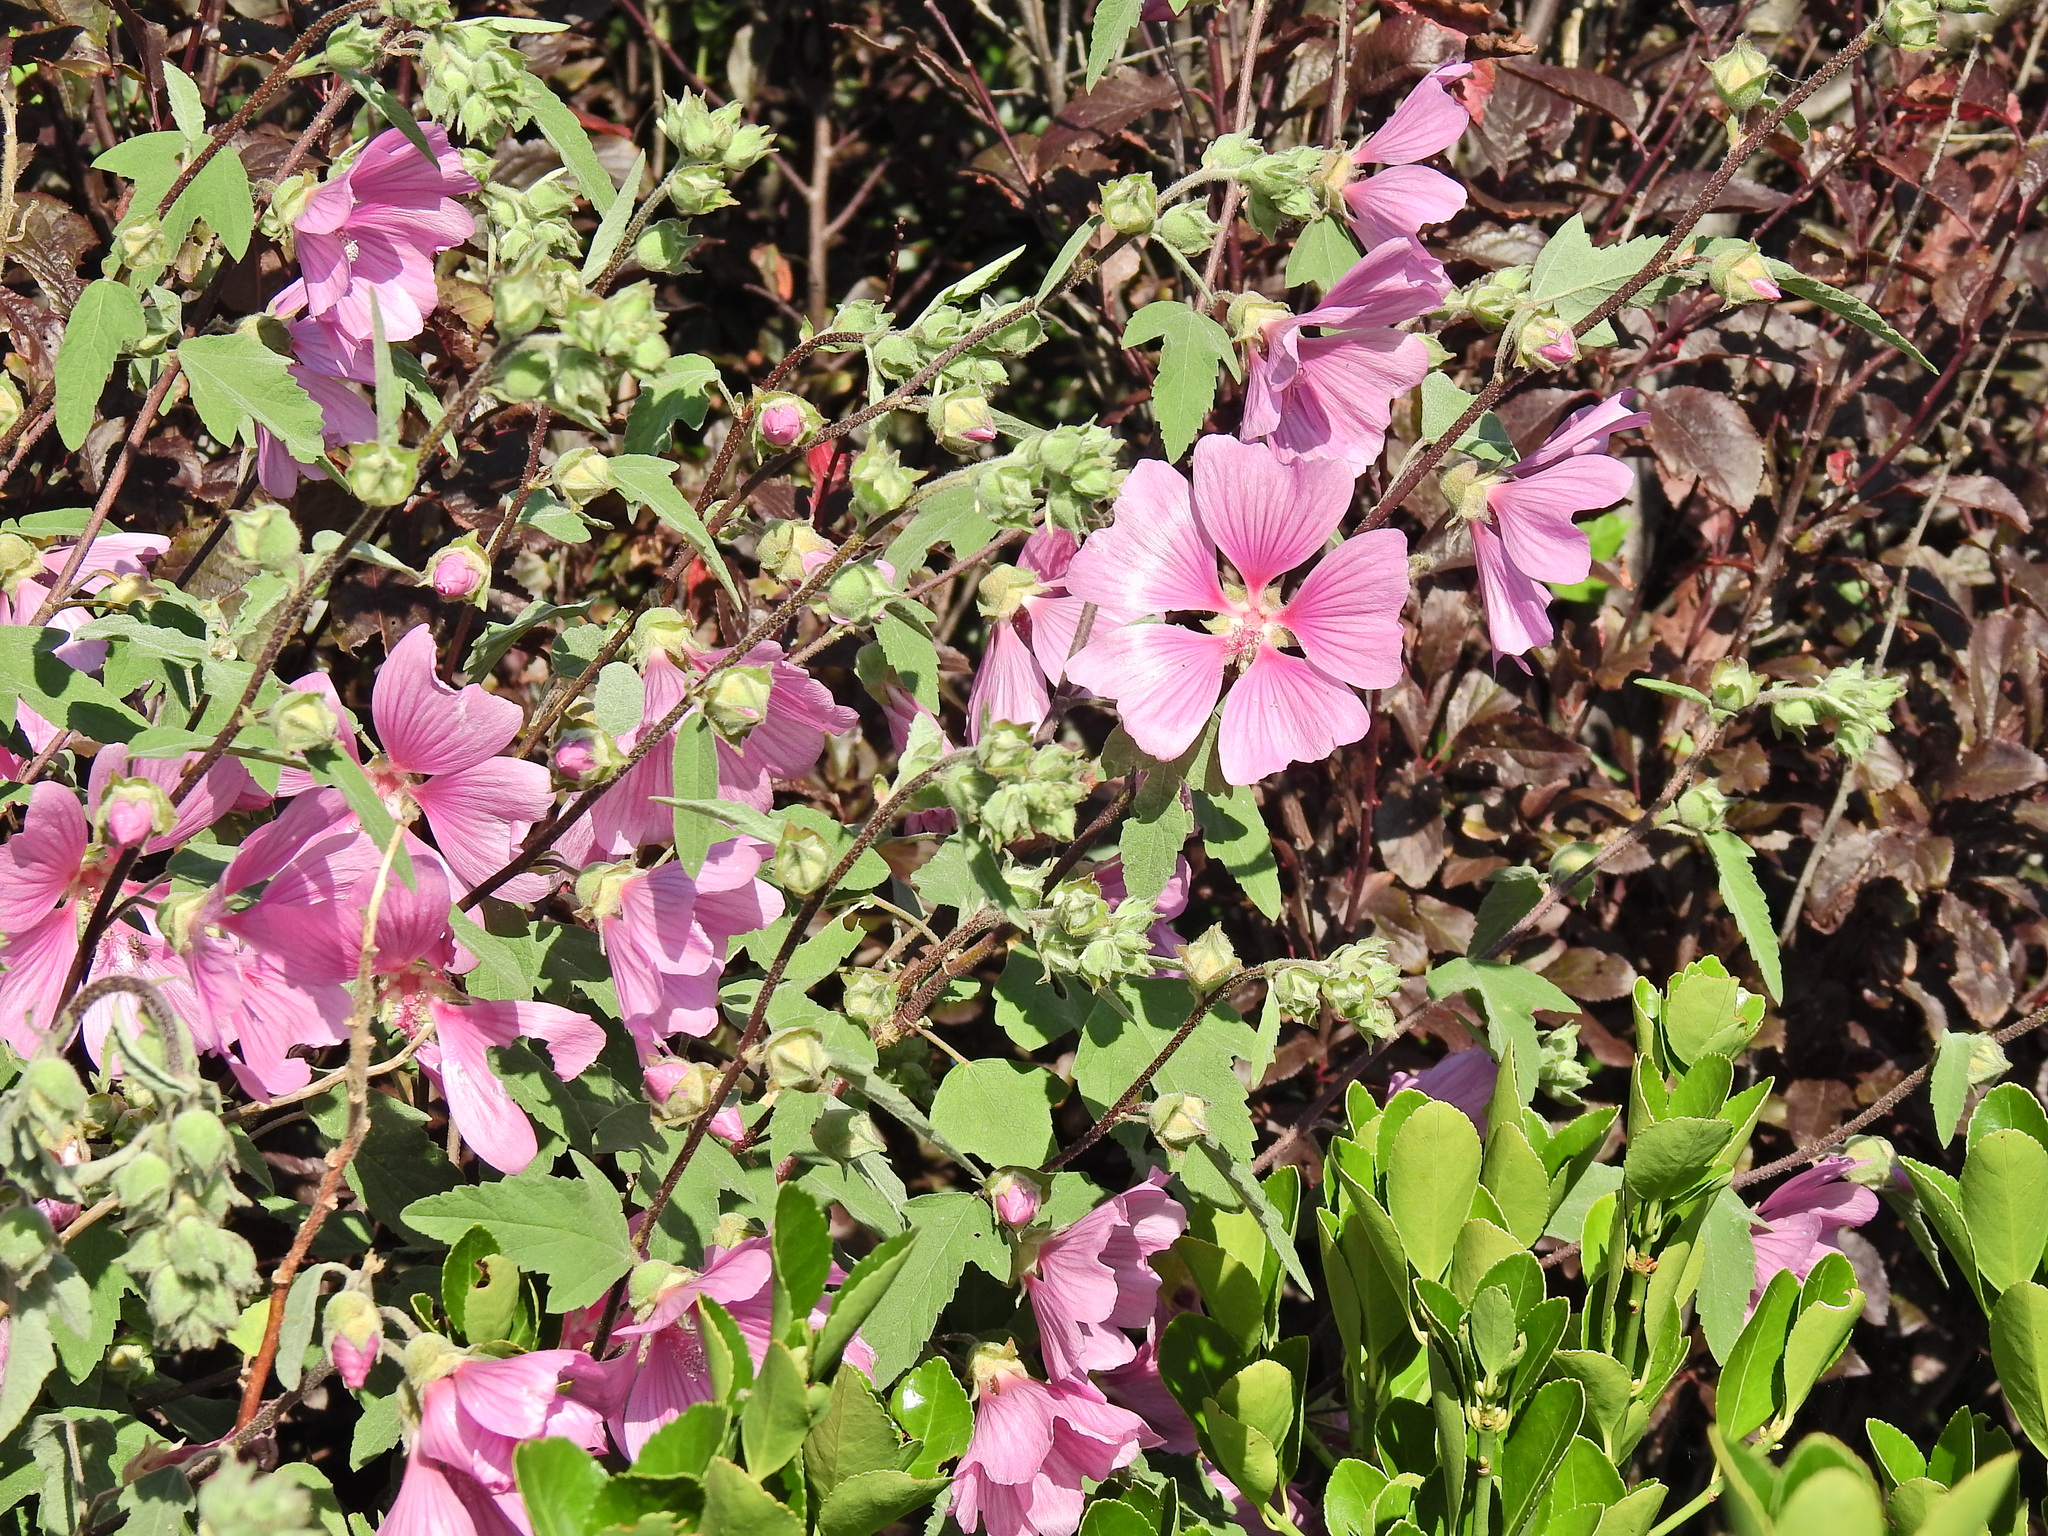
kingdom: Plantae
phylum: Tracheophyta
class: Magnoliopsida
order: Malvales
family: Malvaceae
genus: Malva
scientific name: Malva clementii
